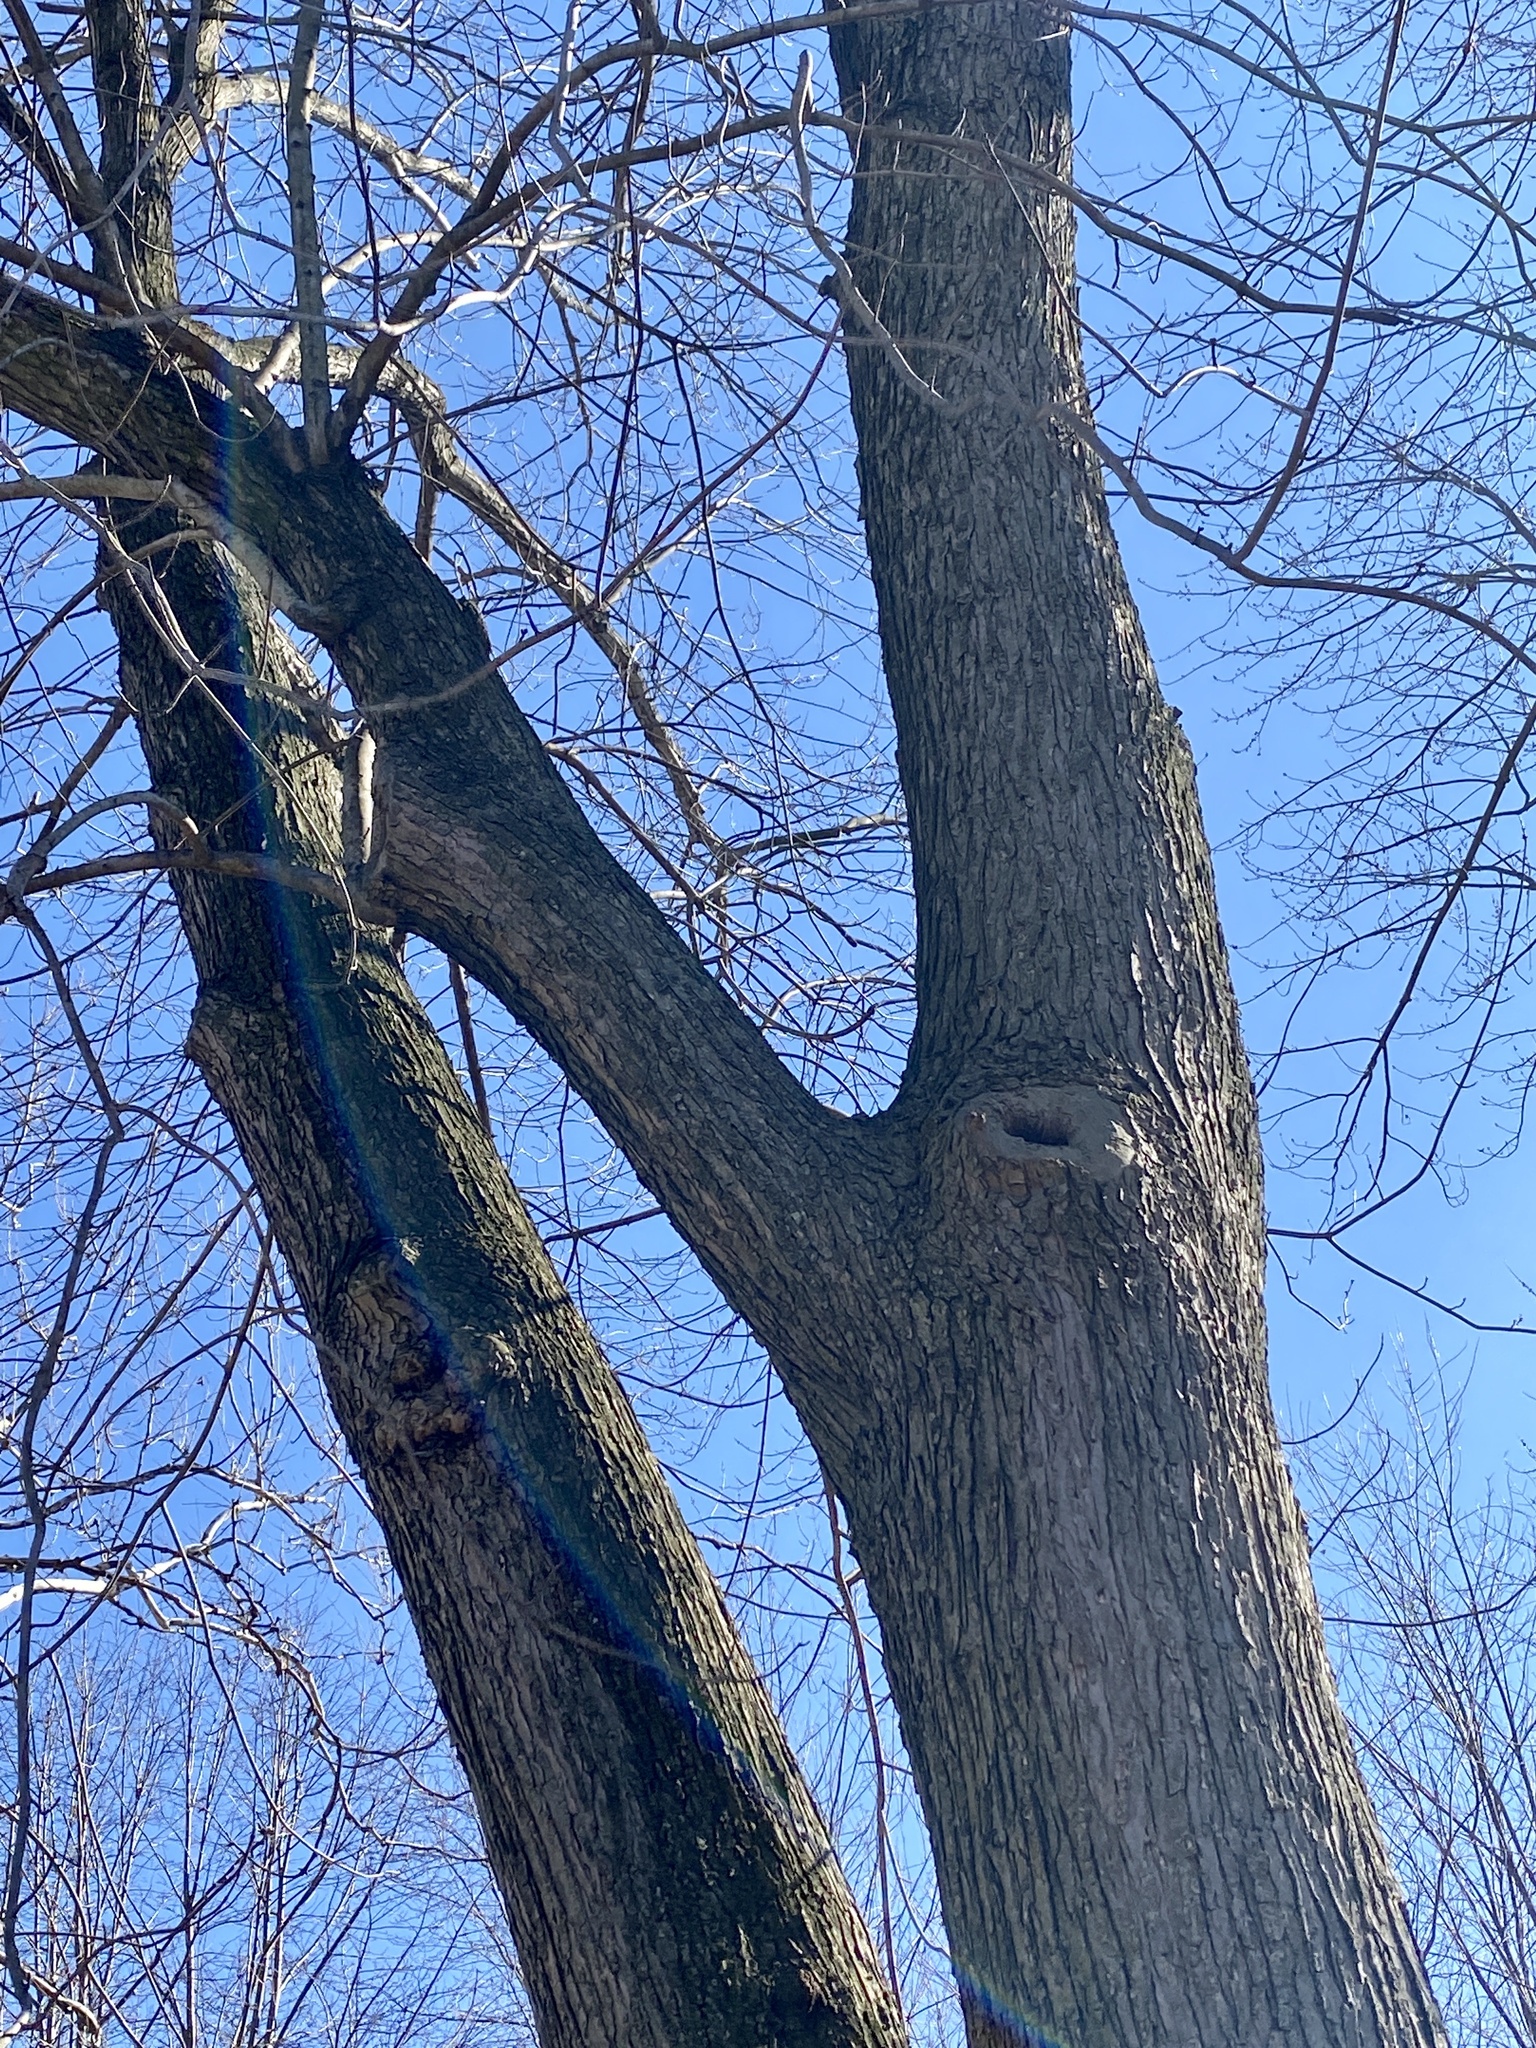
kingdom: Plantae
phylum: Tracheophyta
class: Magnoliopsida
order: Sapindales
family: Sapindaceae
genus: Acer
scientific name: Acer saccharinum
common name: Silver maple
